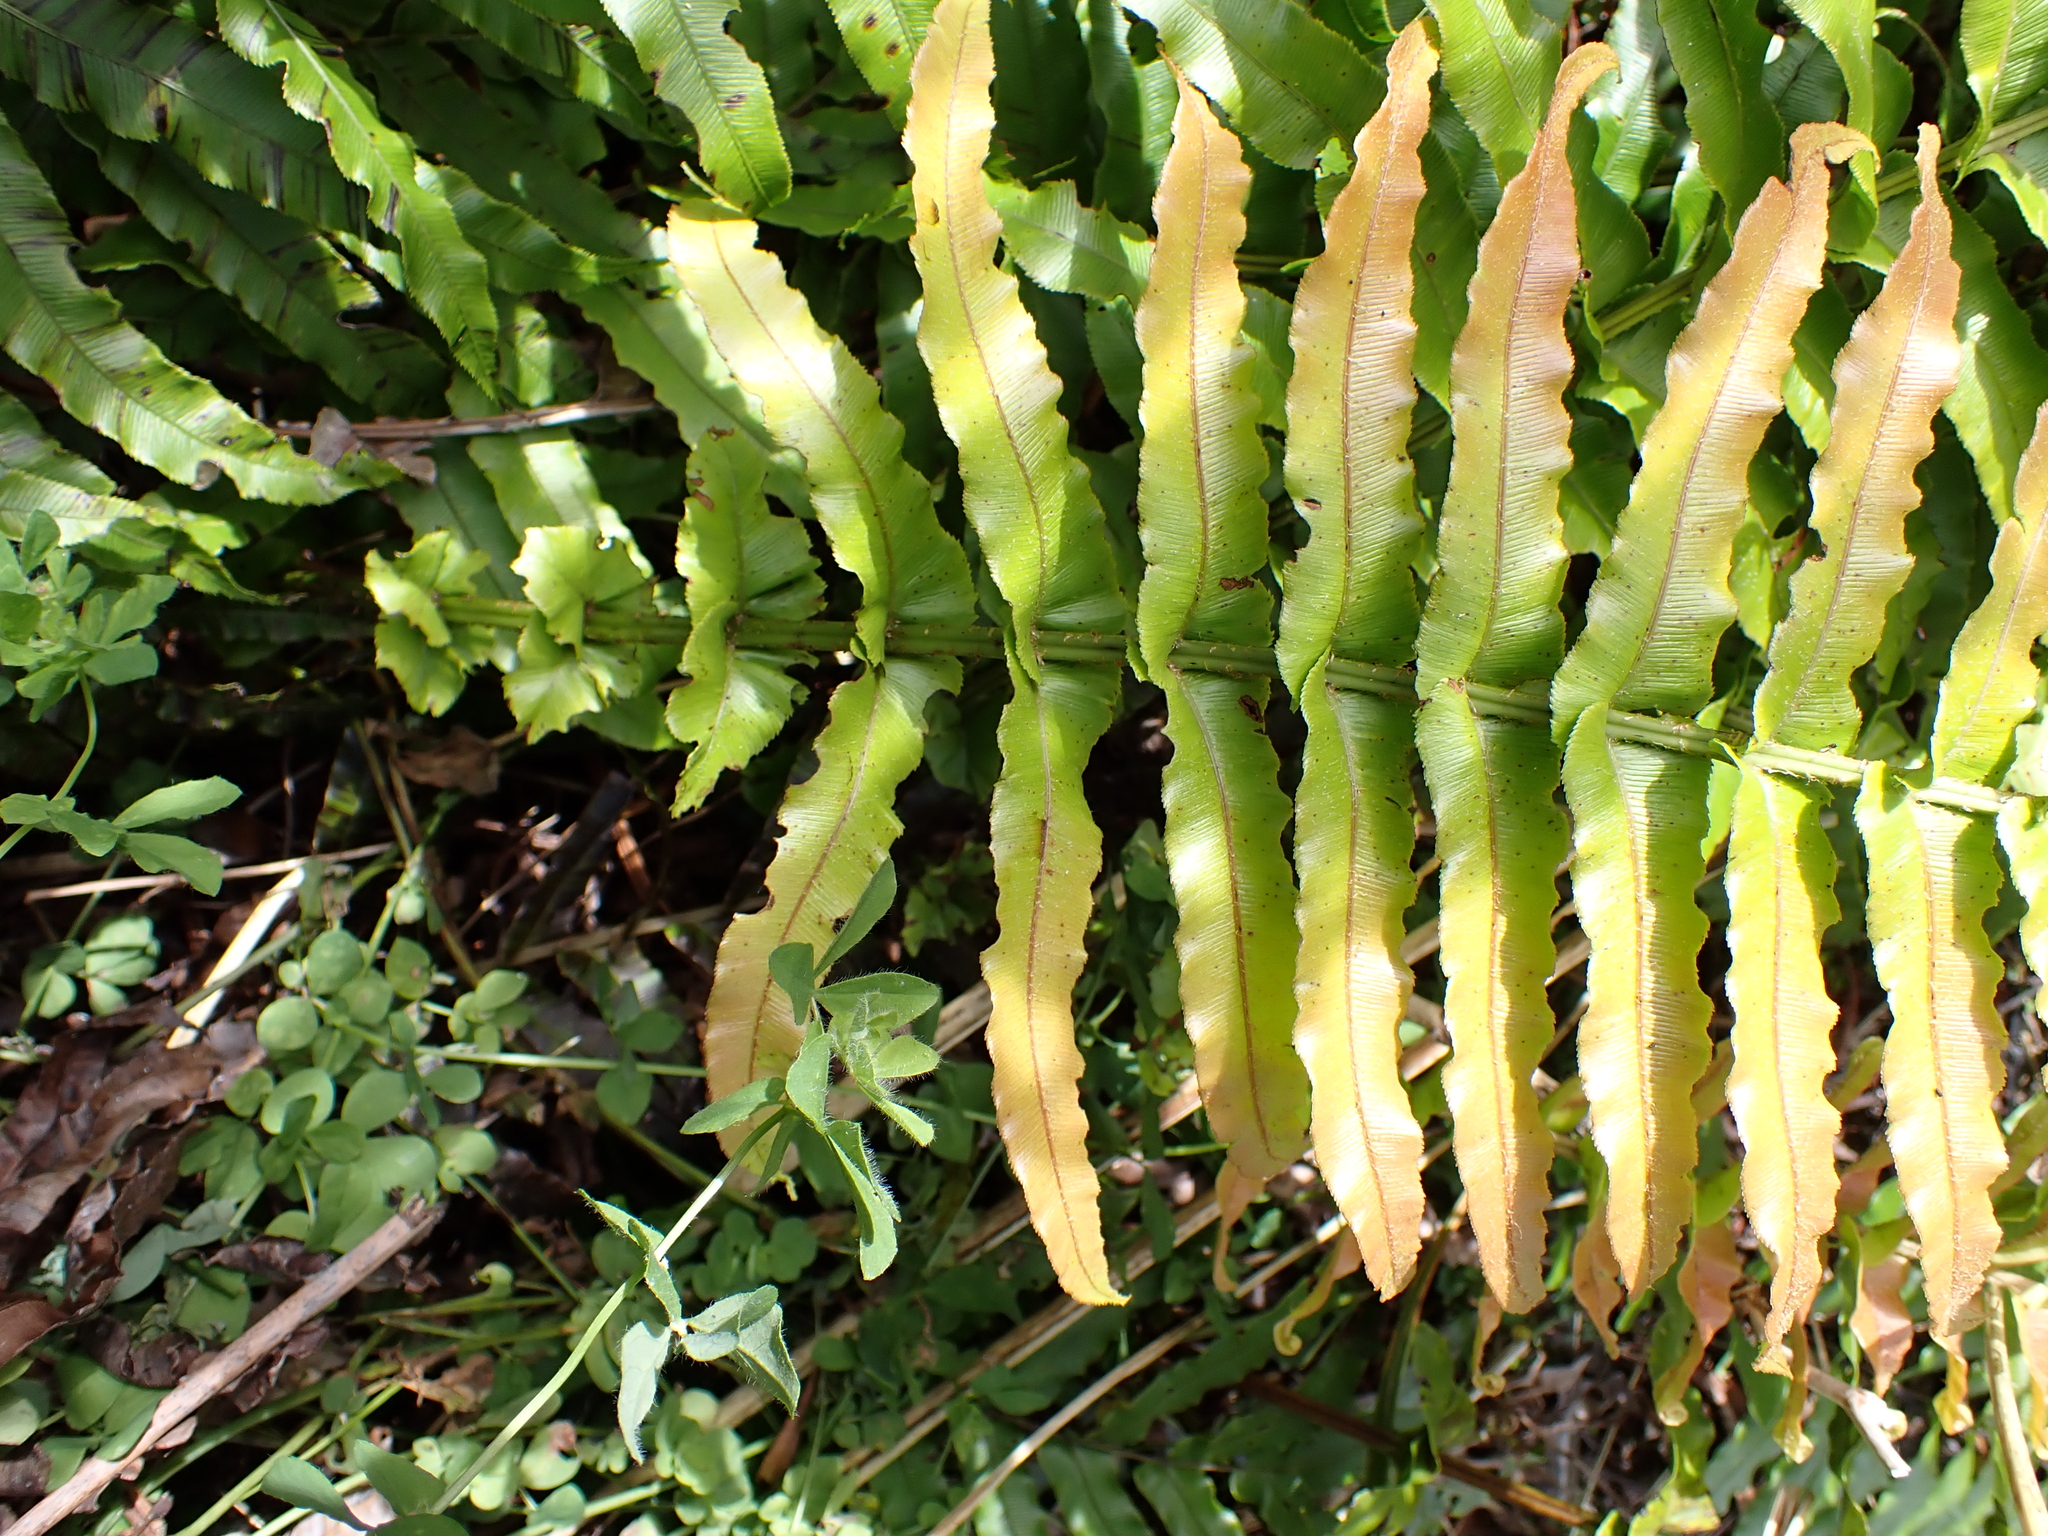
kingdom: Plantae
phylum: Tracheophyta
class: Polypodiopsida
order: Polypodiales
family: Blechnaceae
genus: Parablechnum
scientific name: Parablechnum novae-zelandiae
